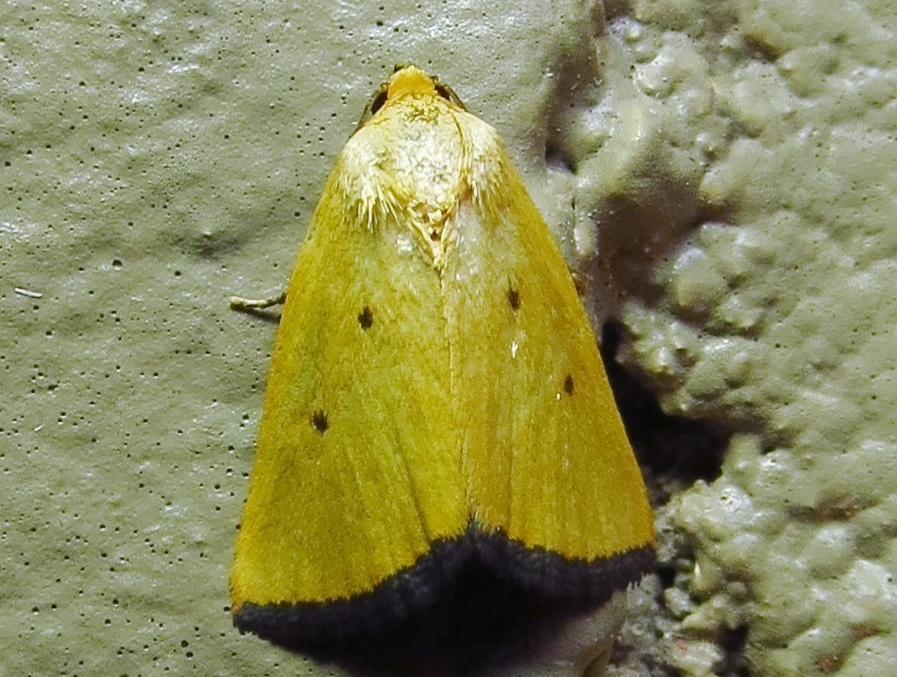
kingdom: Animalia
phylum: Arthropoda
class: Insecta
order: Lepidoptera
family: Noctuidae
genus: Marimatha
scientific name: Marimatha nigrofimbria
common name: Black-bordered lemon moth
